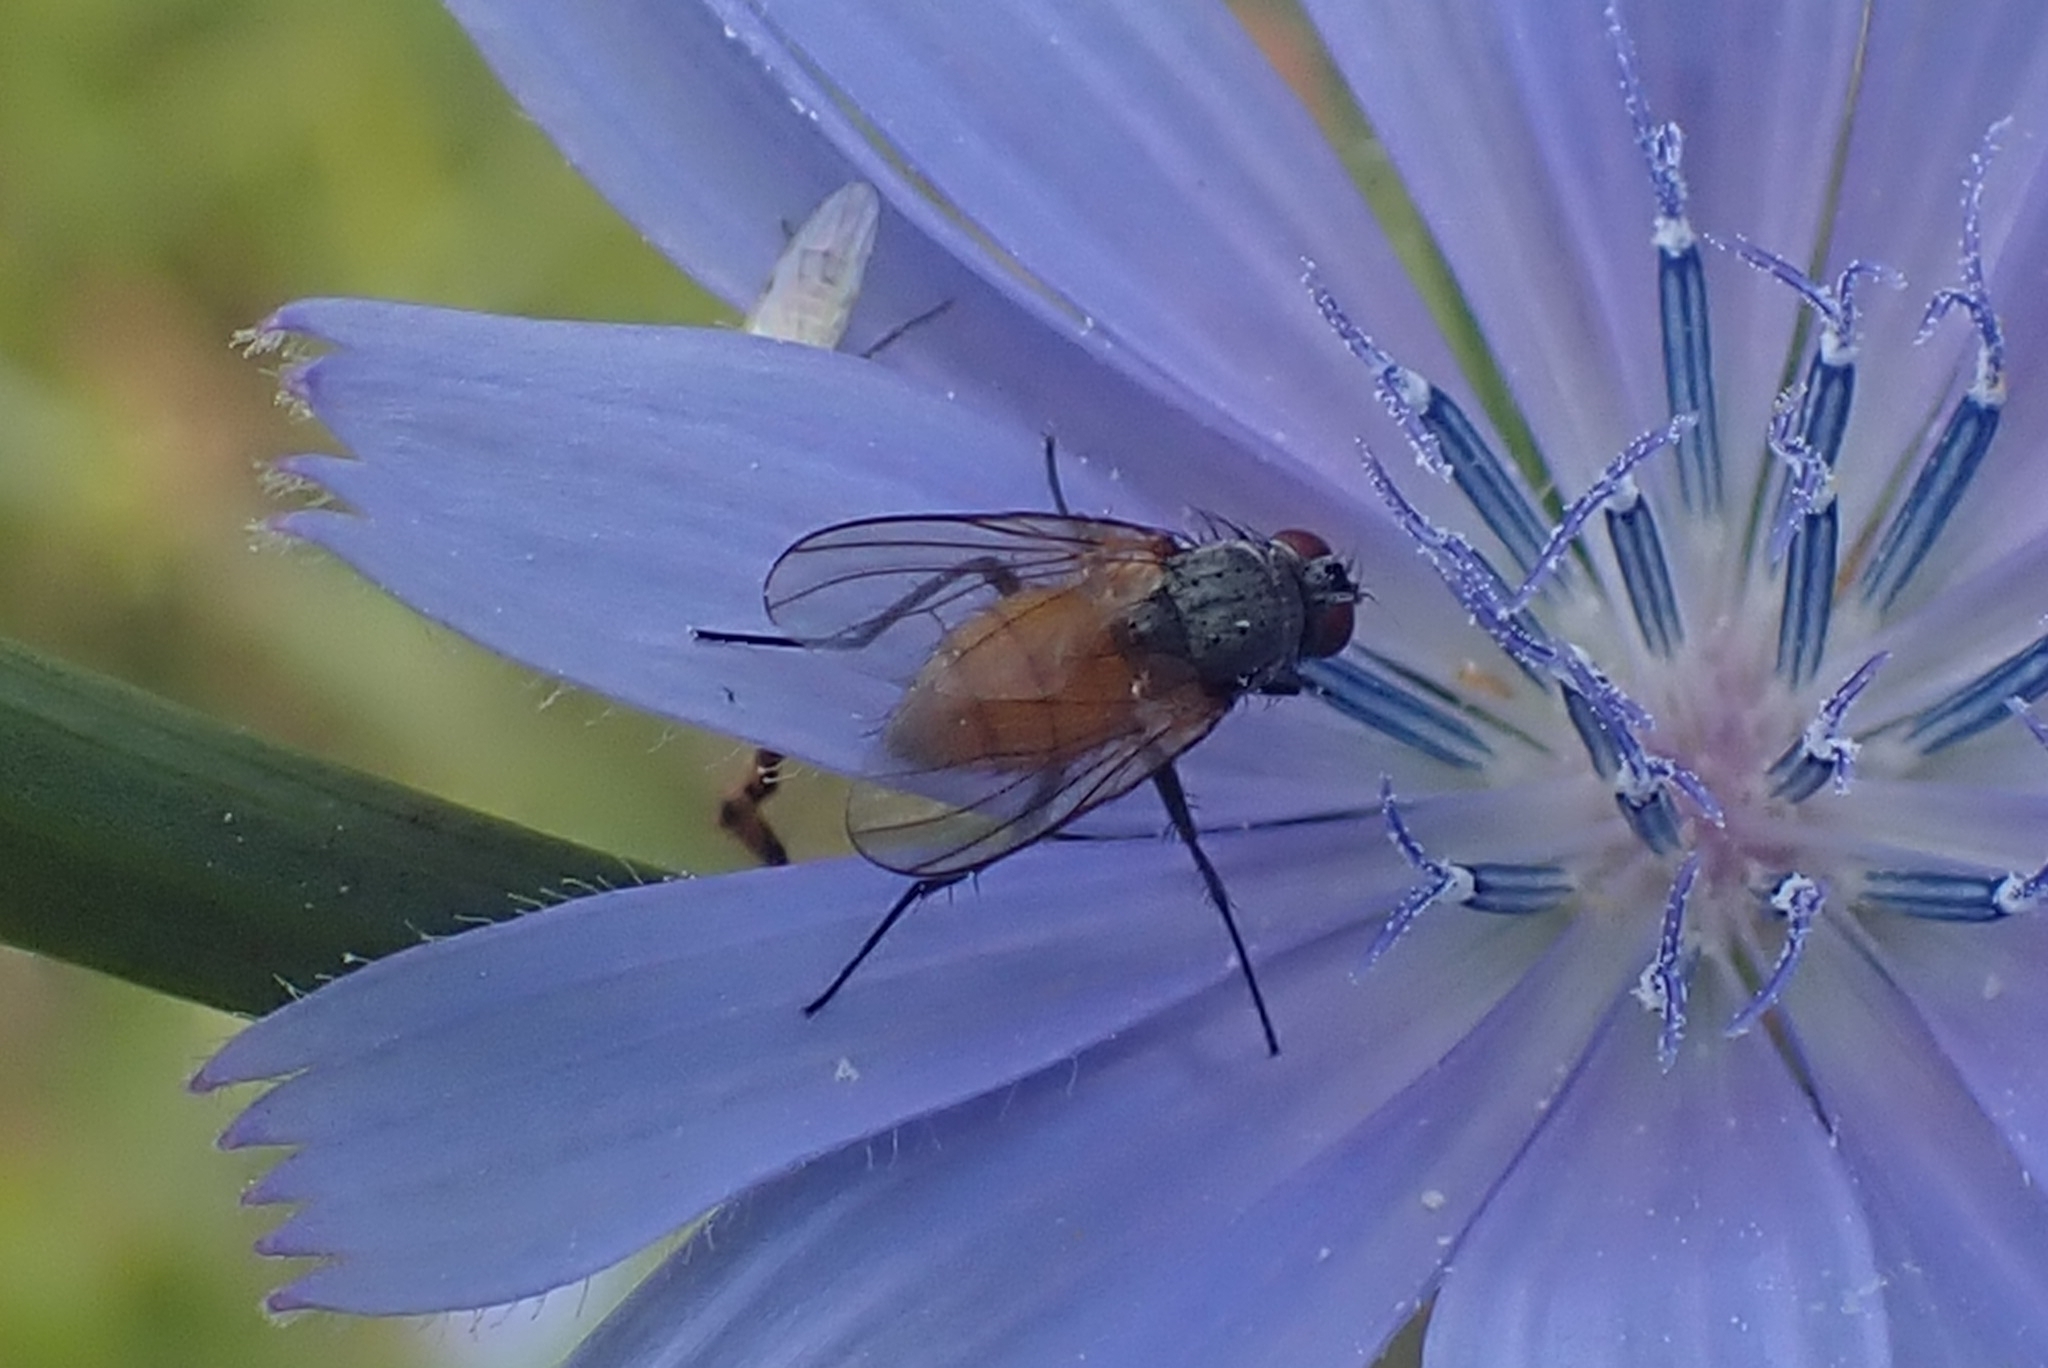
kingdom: Animalia
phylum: Arthropoda
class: Insecta
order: Diptera
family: Muscidae
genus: Thricops
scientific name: Thricops semicinereus
